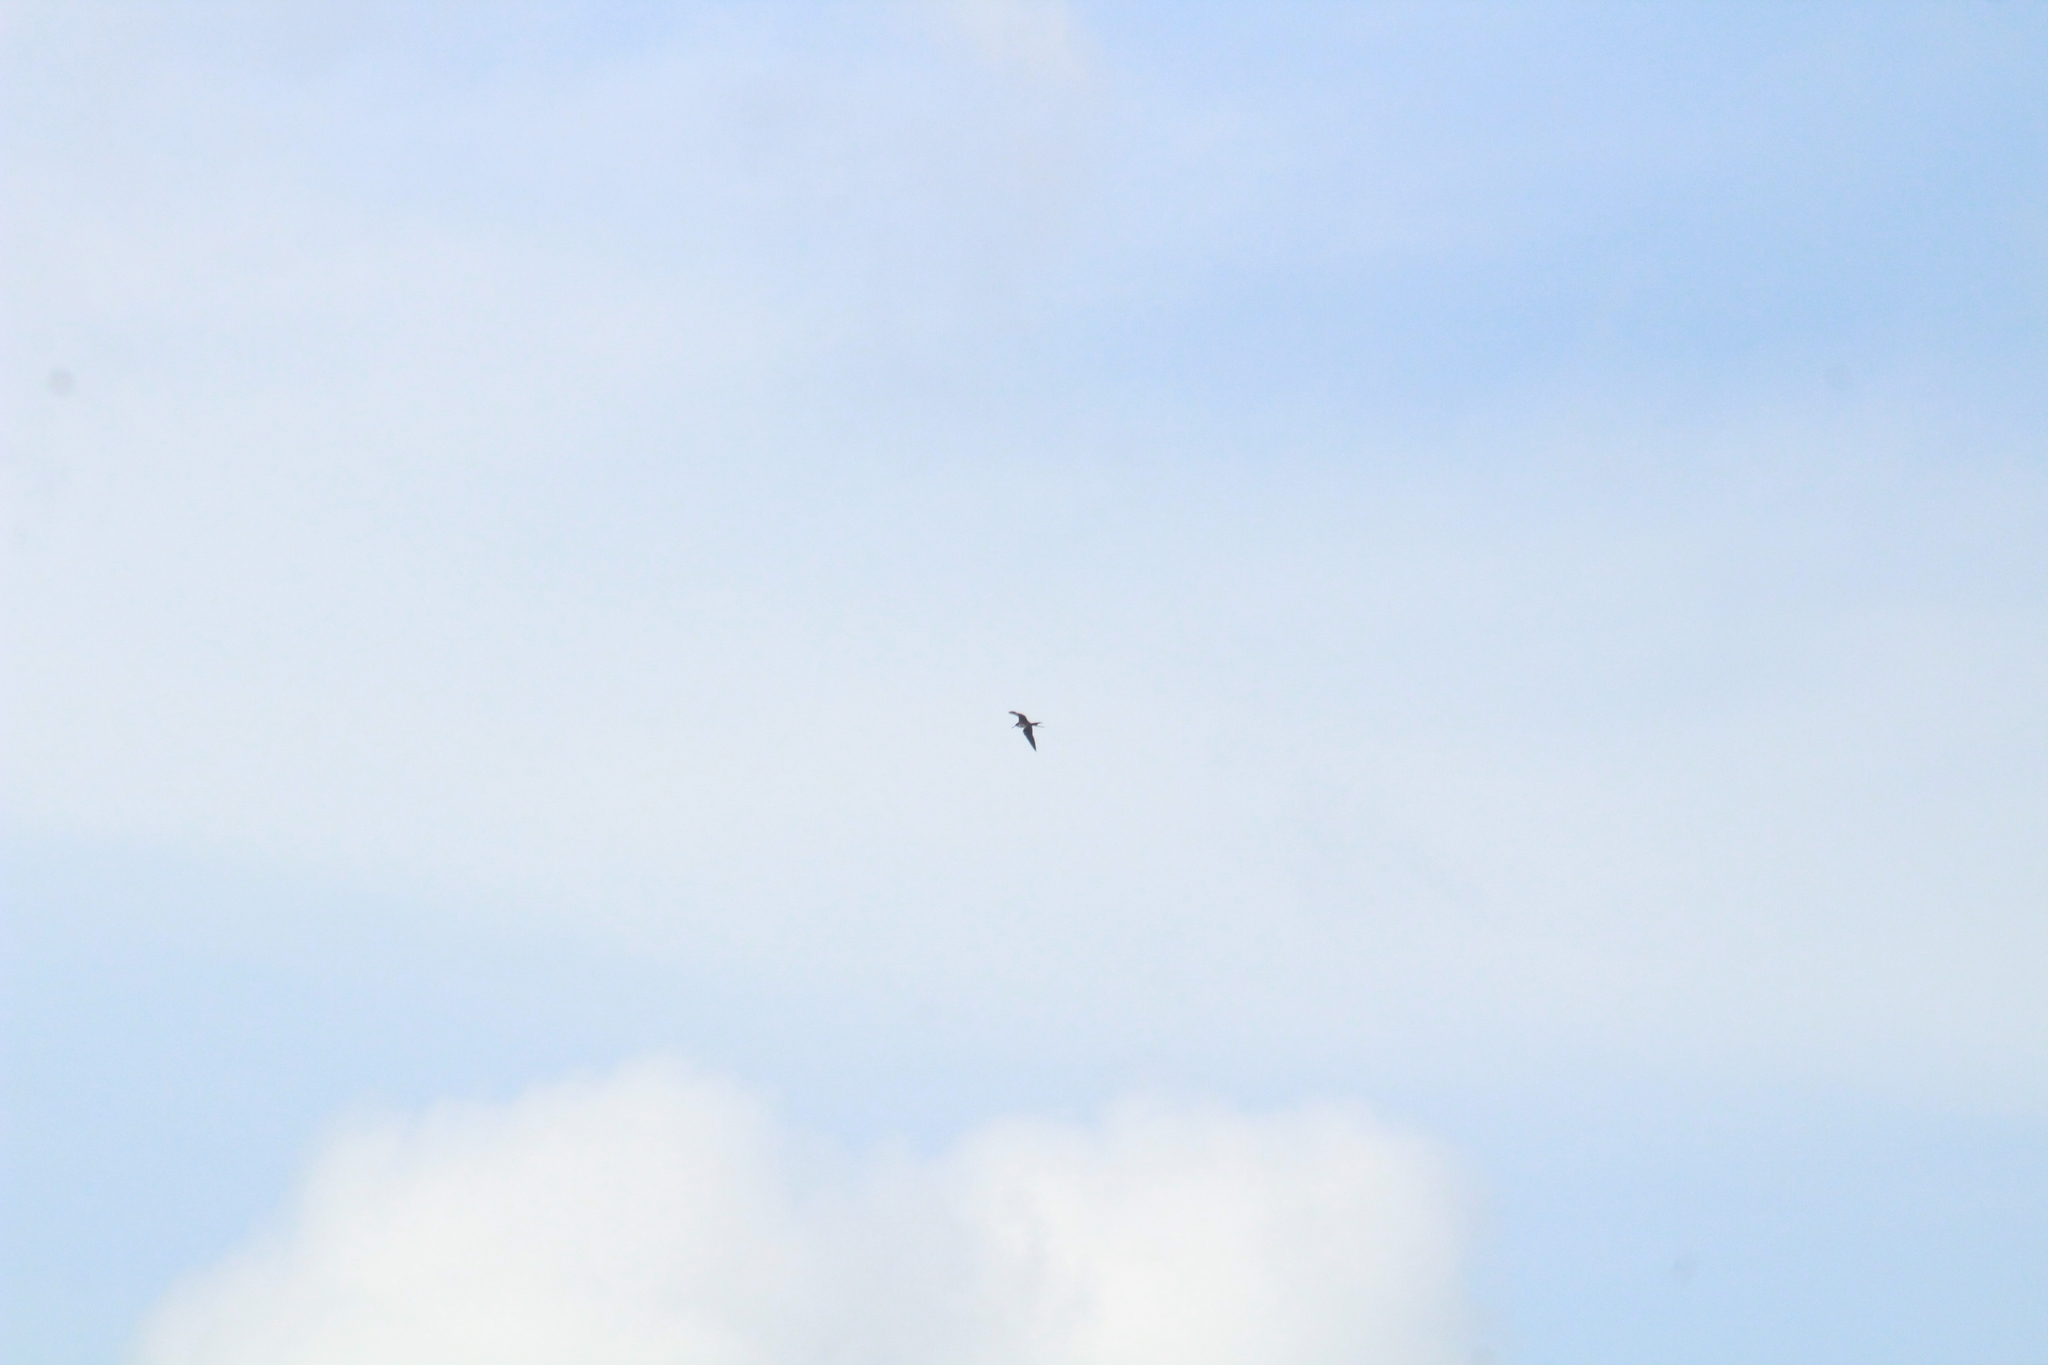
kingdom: Animalia
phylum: Chordata
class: Aves
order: Suliformes
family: Fregatidae
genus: Fregata
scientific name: Fregata magnificens
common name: Magnificent frigatebird
